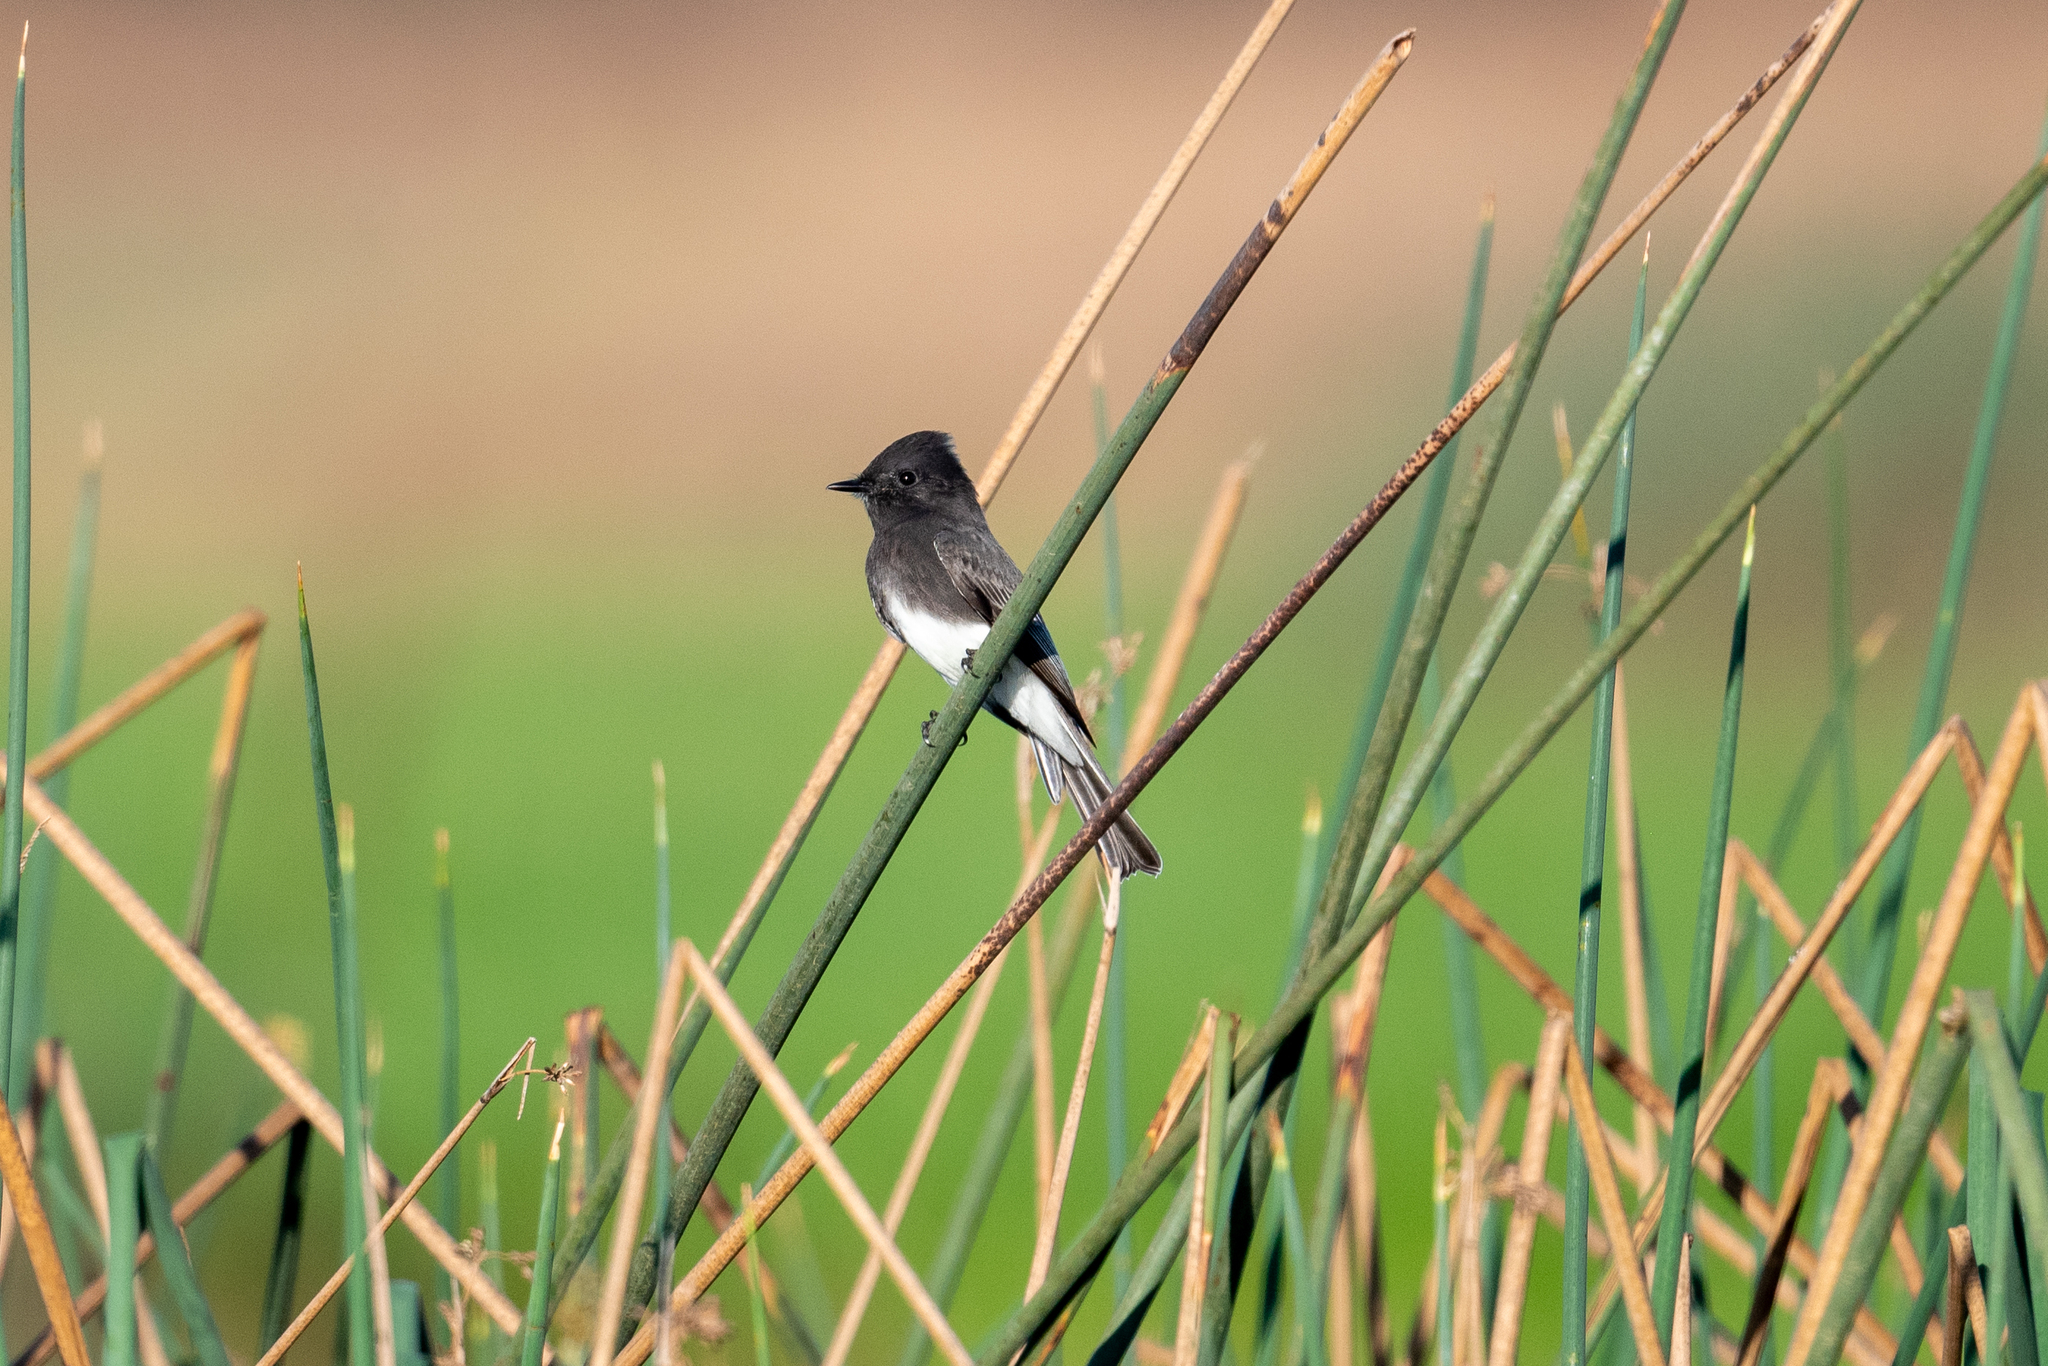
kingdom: Animalia
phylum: Chordata
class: Aves
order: Passeriformes
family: Tyrannidae
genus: Sayornis
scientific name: Sayornis nigricans
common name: Black phoebe
